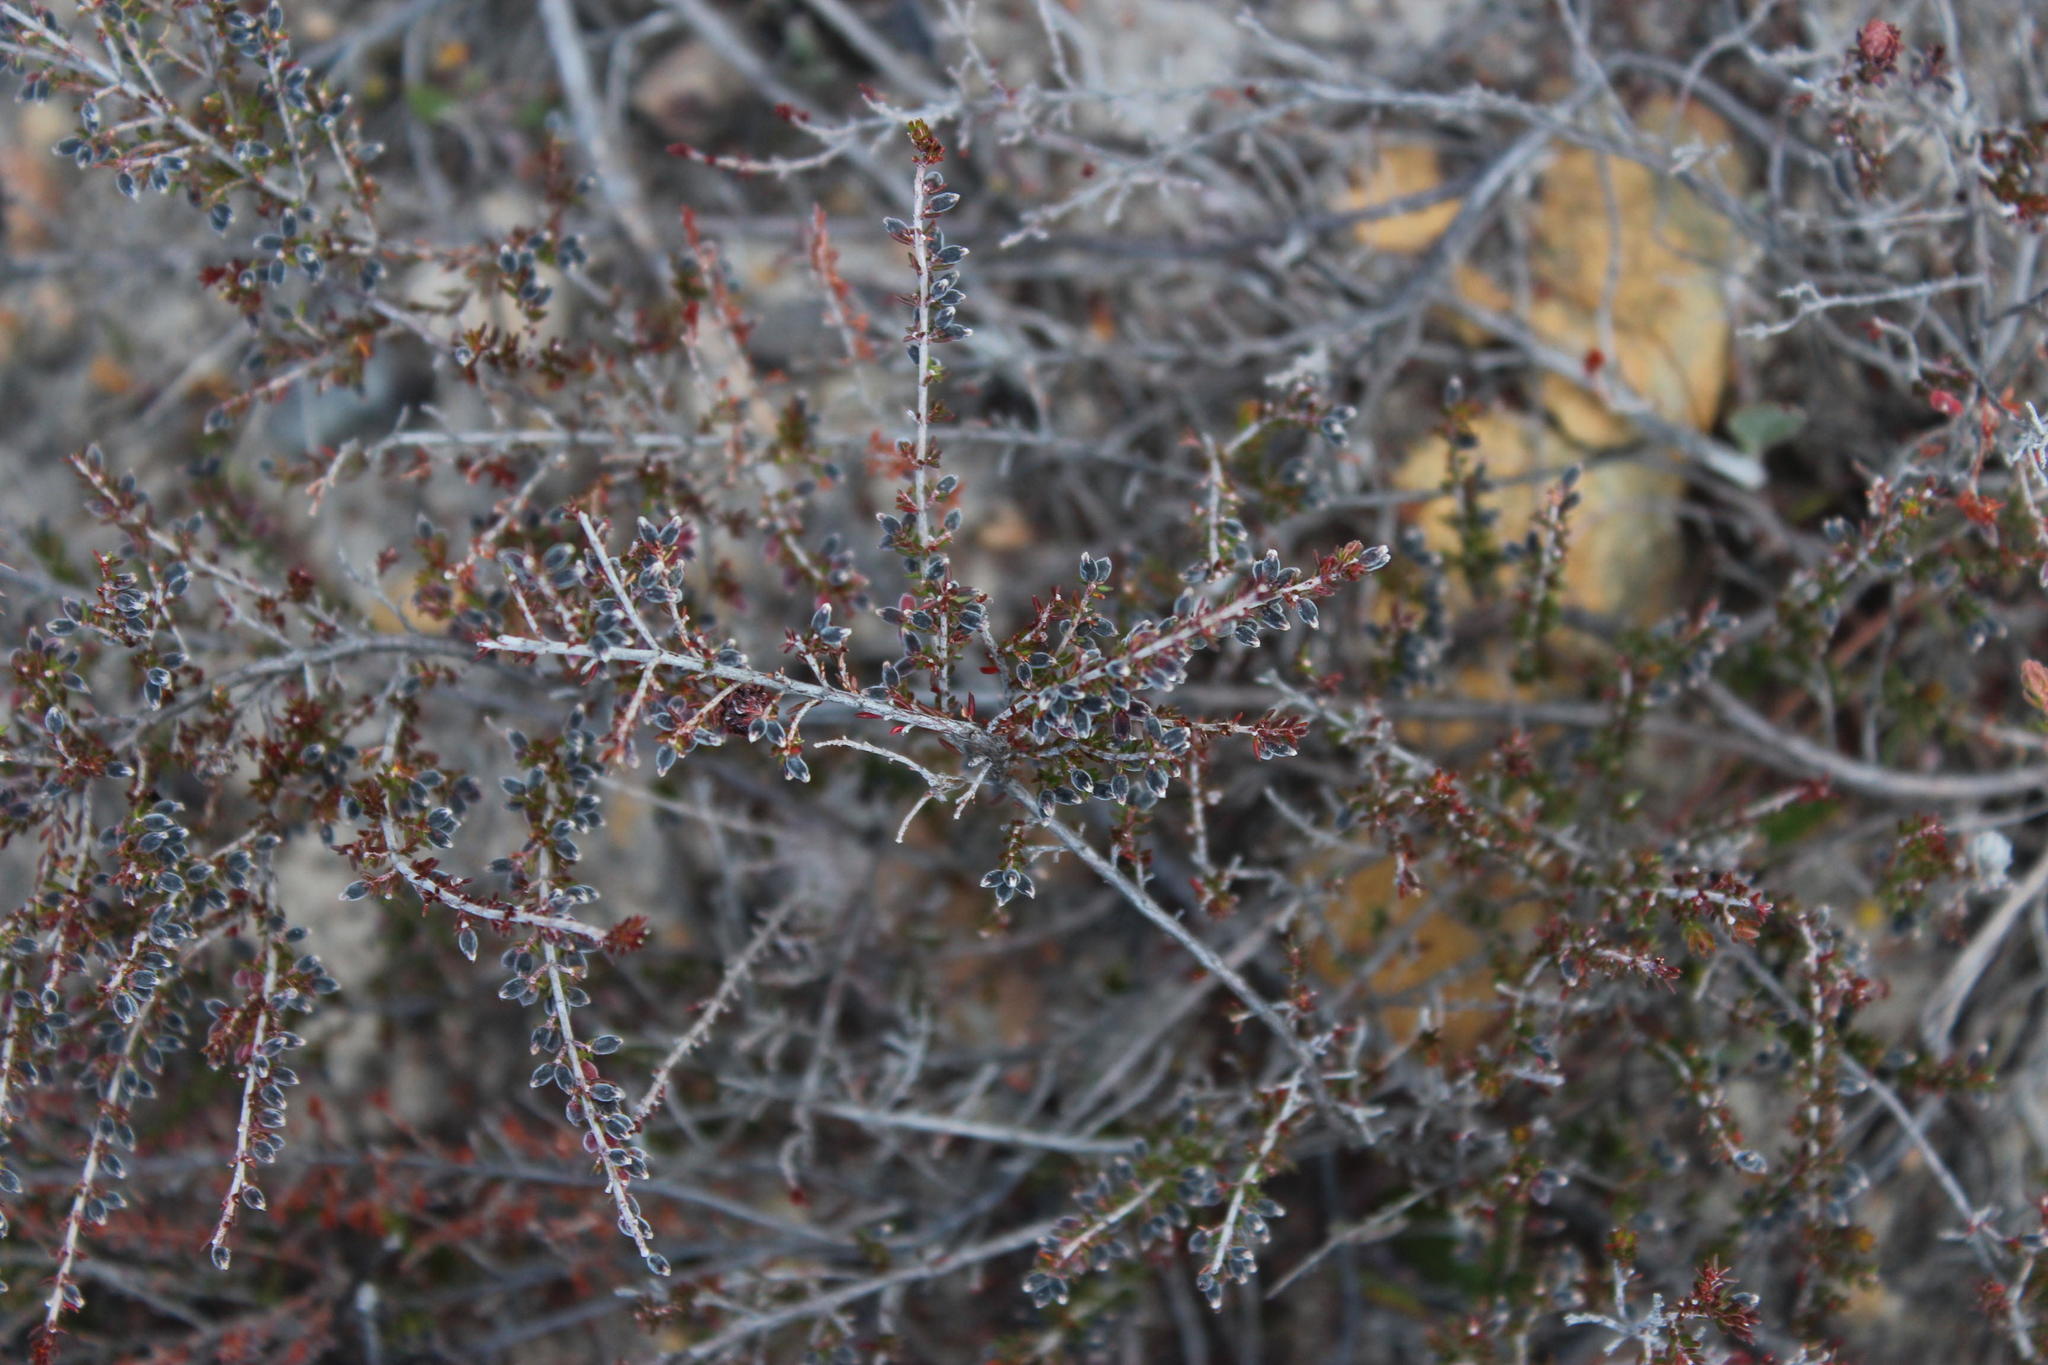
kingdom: Plantae
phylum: Tracheophyta
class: Magnoliopsida
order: Ericales
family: Ericaceae
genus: Erica
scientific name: Erica anguliger
